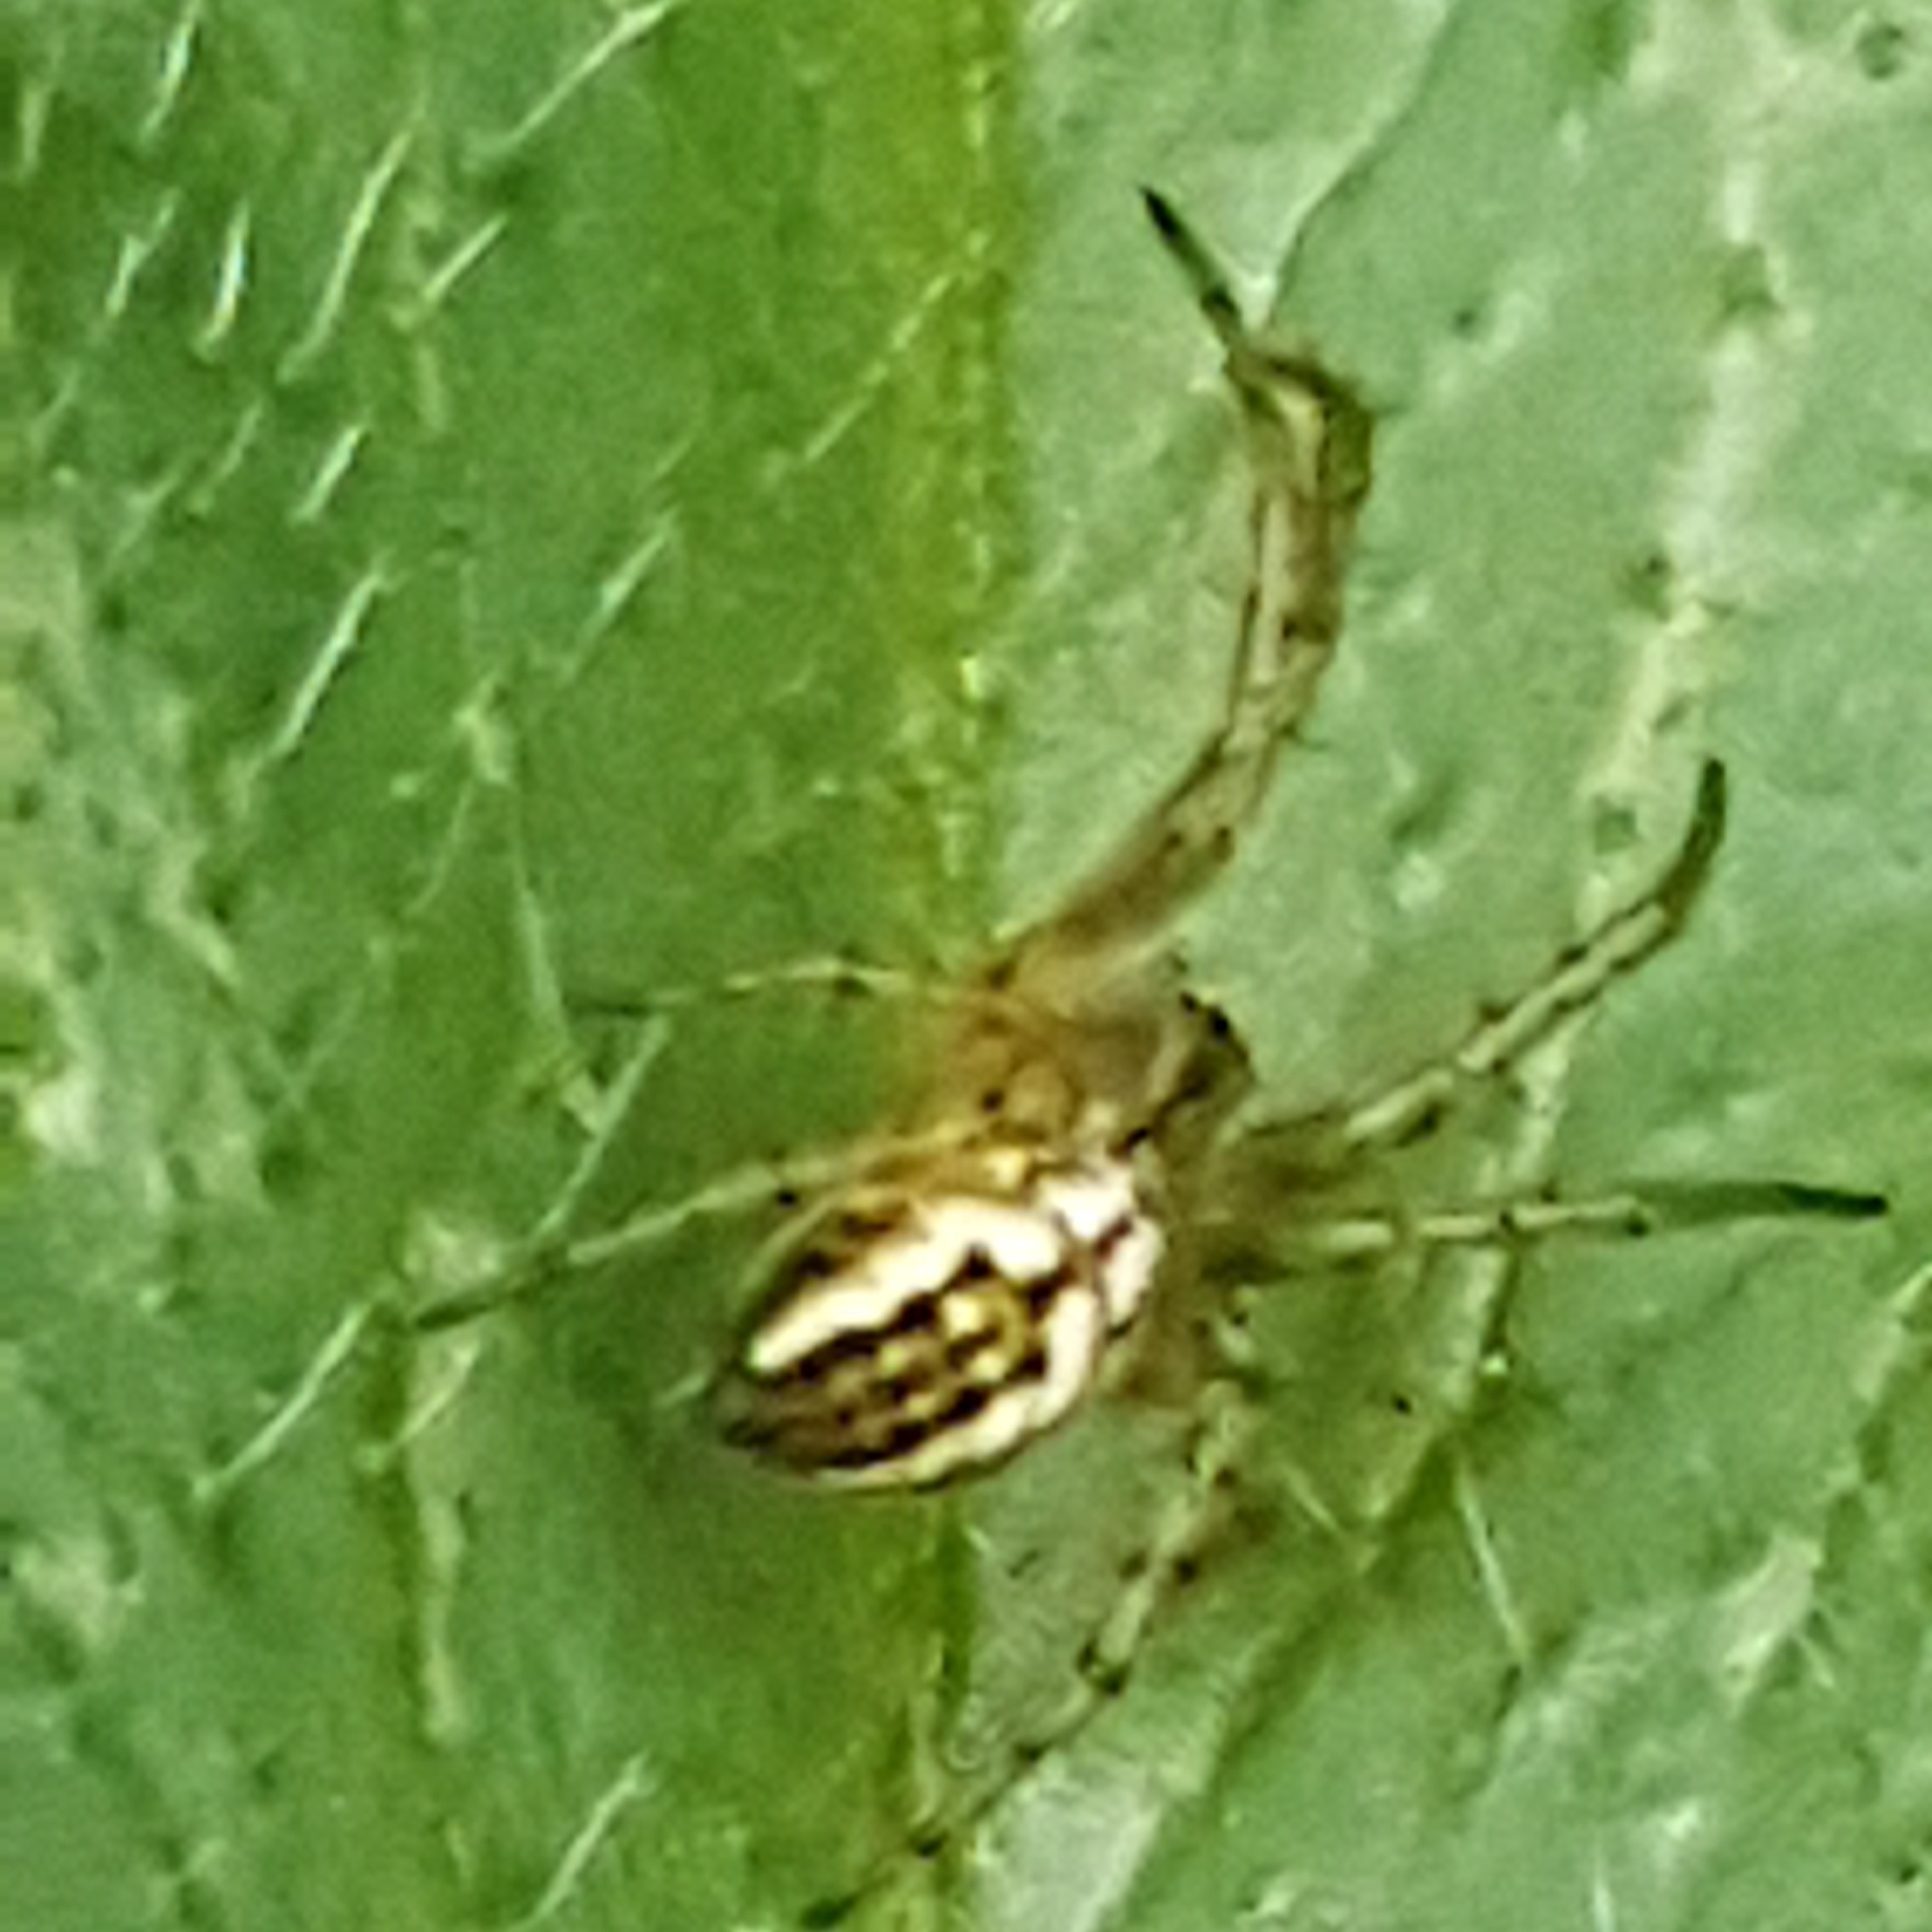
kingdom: Animalia
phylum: Arthropoda
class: Arachnida
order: Araneae
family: Araneidae
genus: Mangora
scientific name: Mangora acalypha
